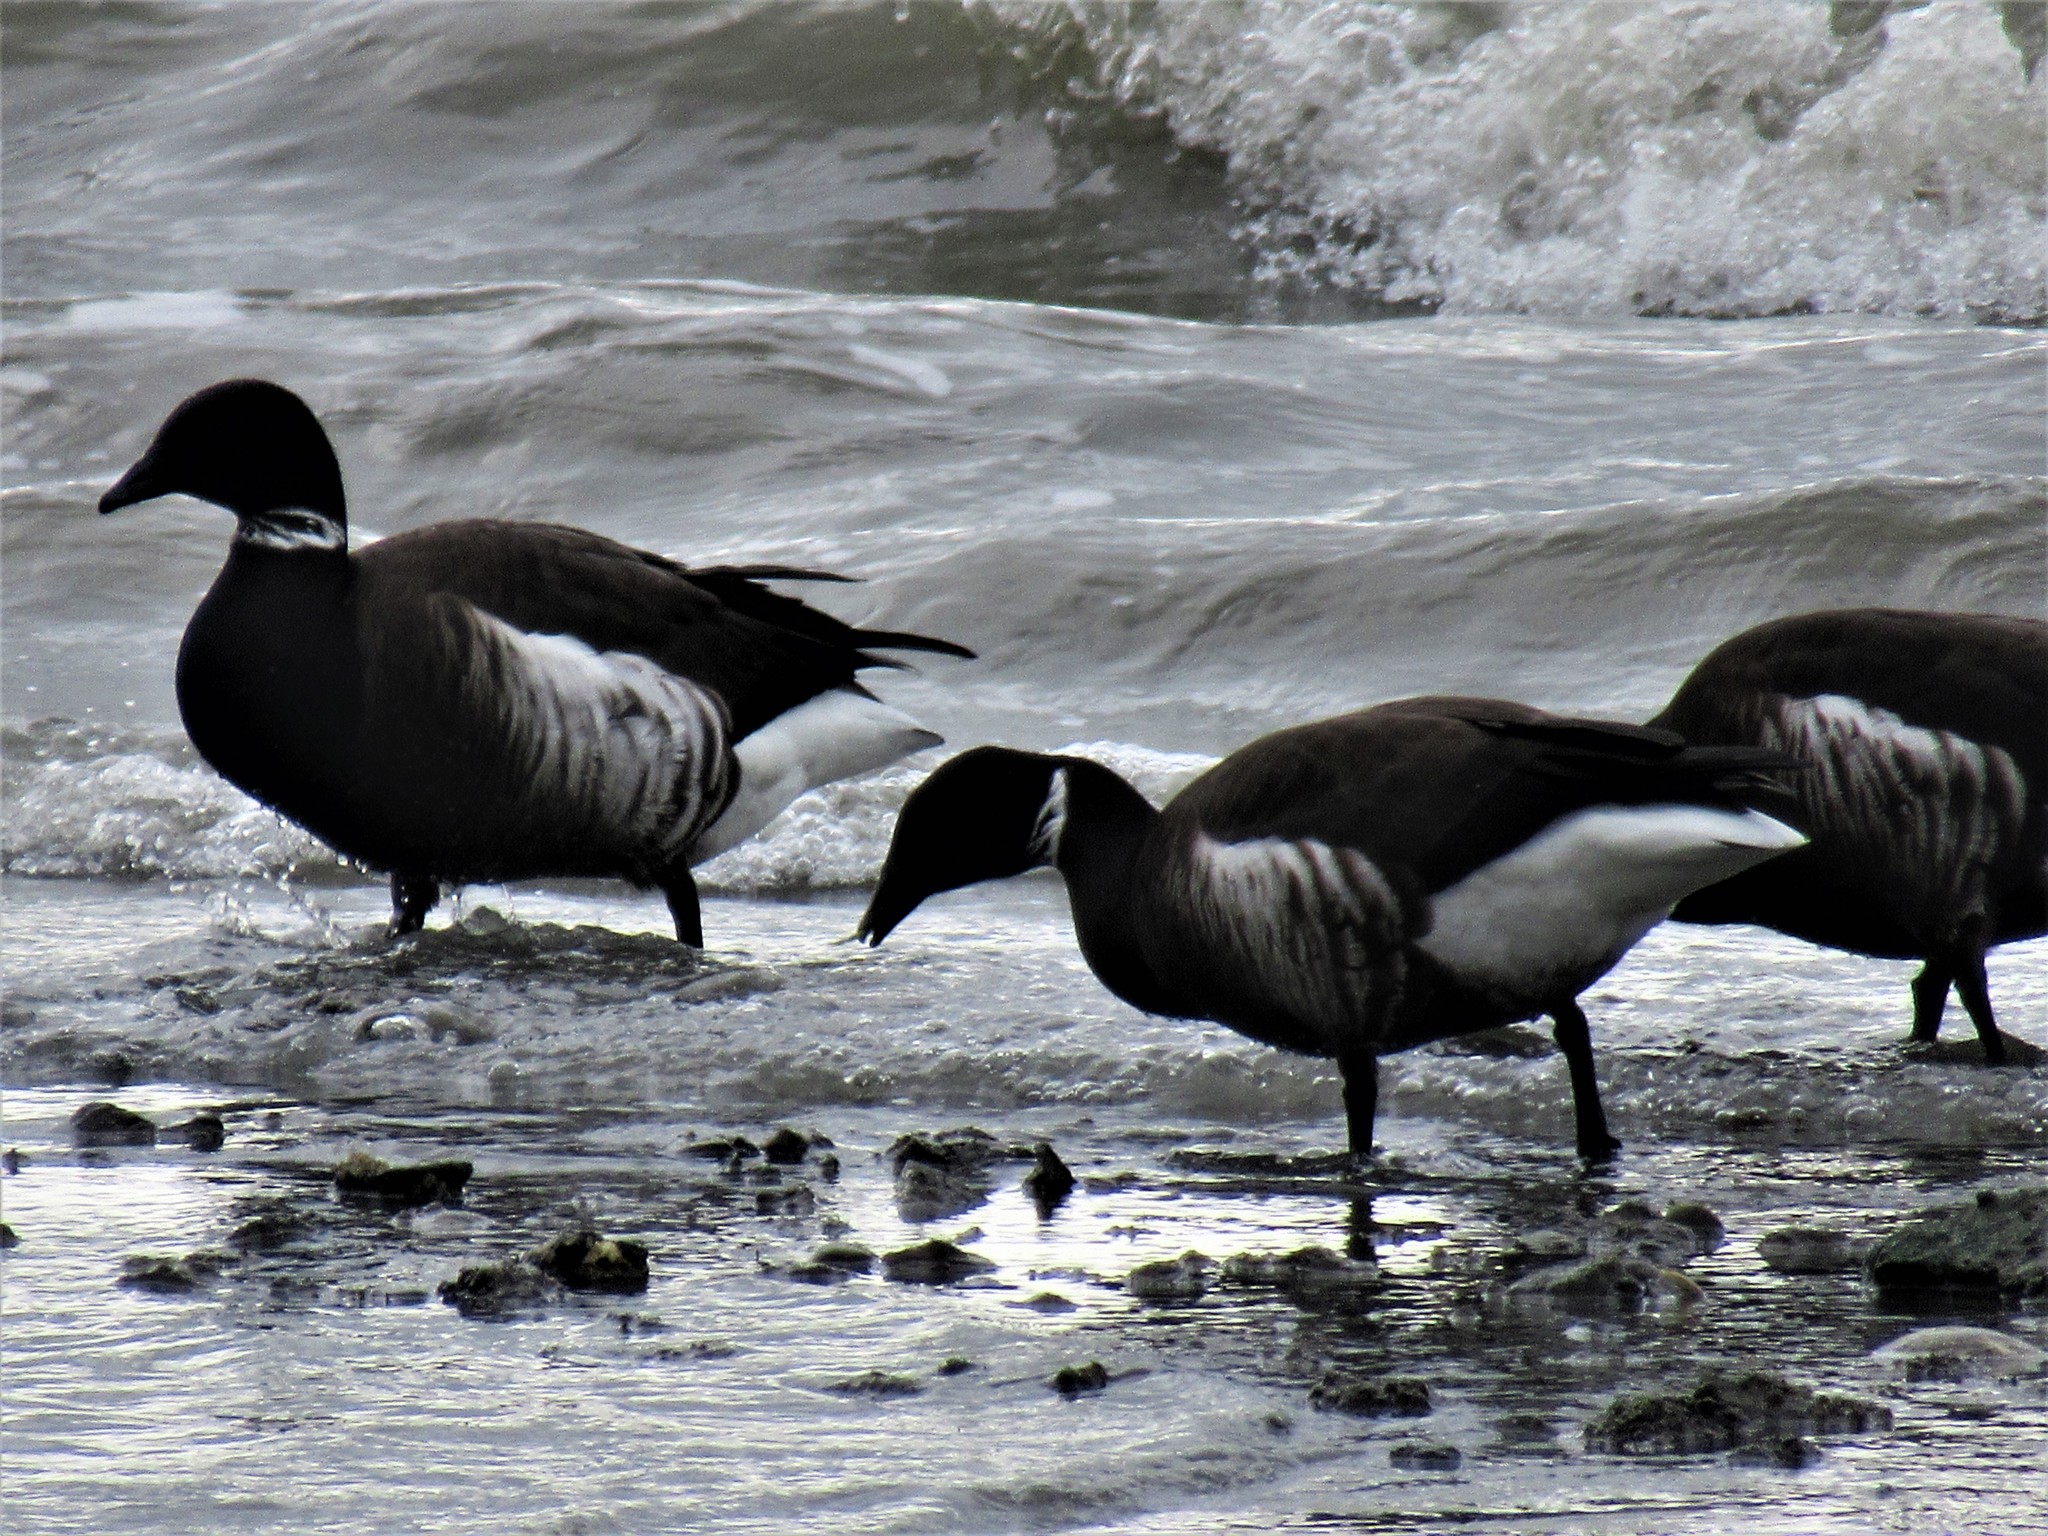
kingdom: Animalia
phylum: Chordata
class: Aves
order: Anseriformes
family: Anatidae
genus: Branta
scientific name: Branta bernicla
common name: Brant goose
